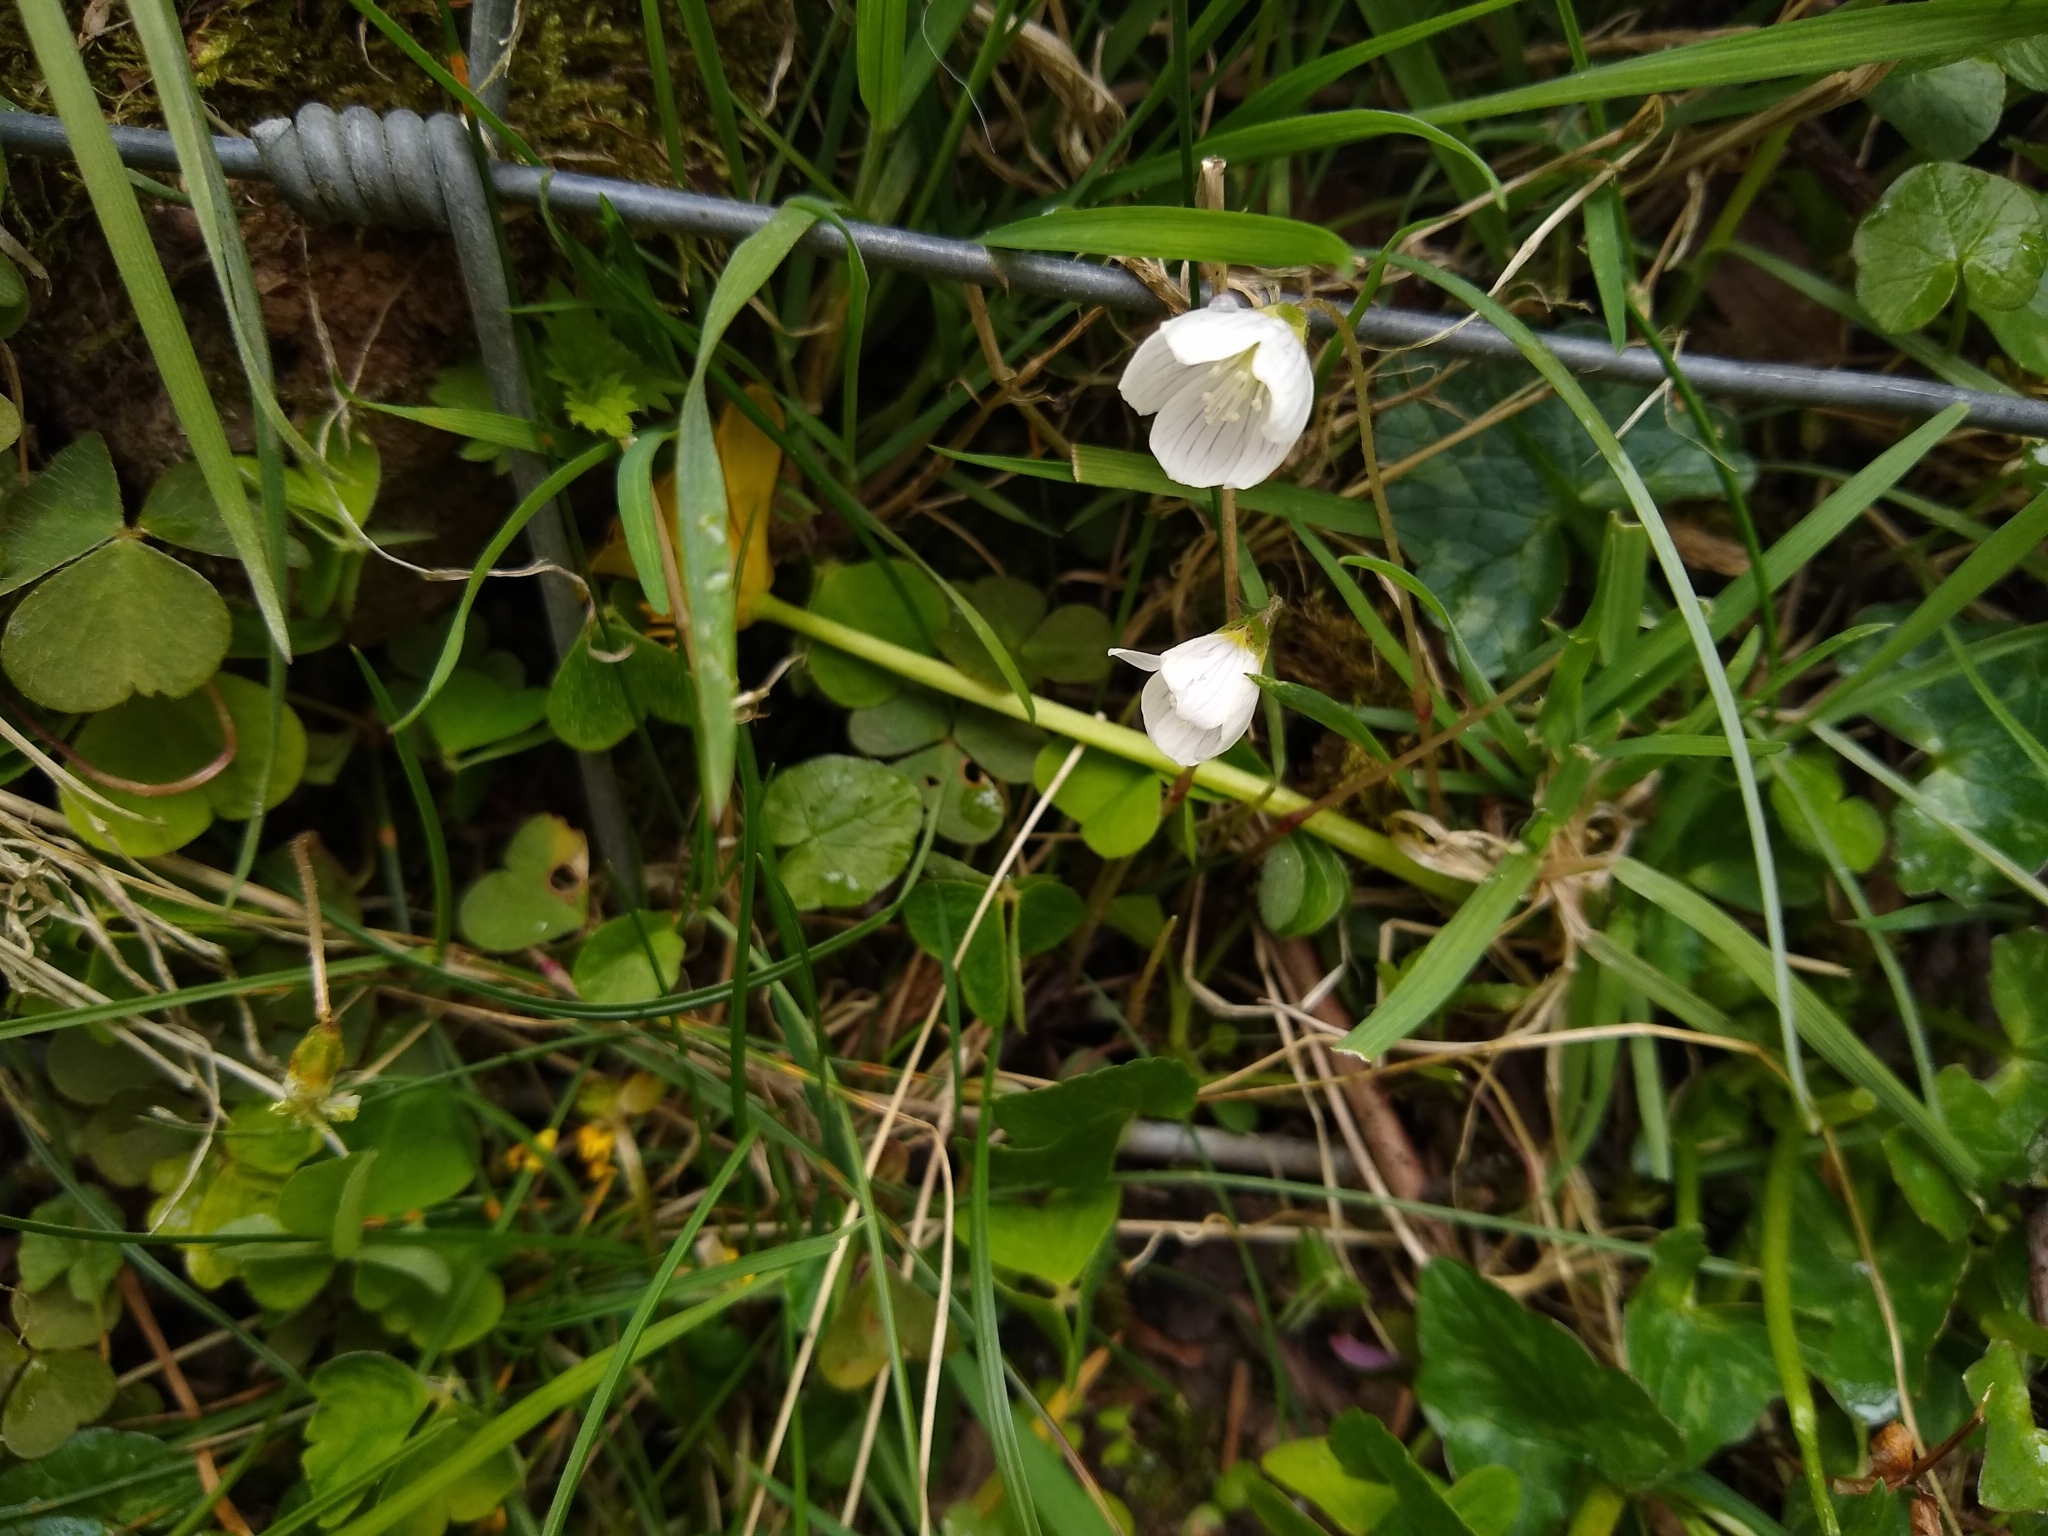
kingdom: Plantae
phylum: Tracheophyta
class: Magnoliopsida
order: Oxalidales
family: Oxalidaceae
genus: Oxalis
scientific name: Oxalis acetosella
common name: Wood-sorrel
